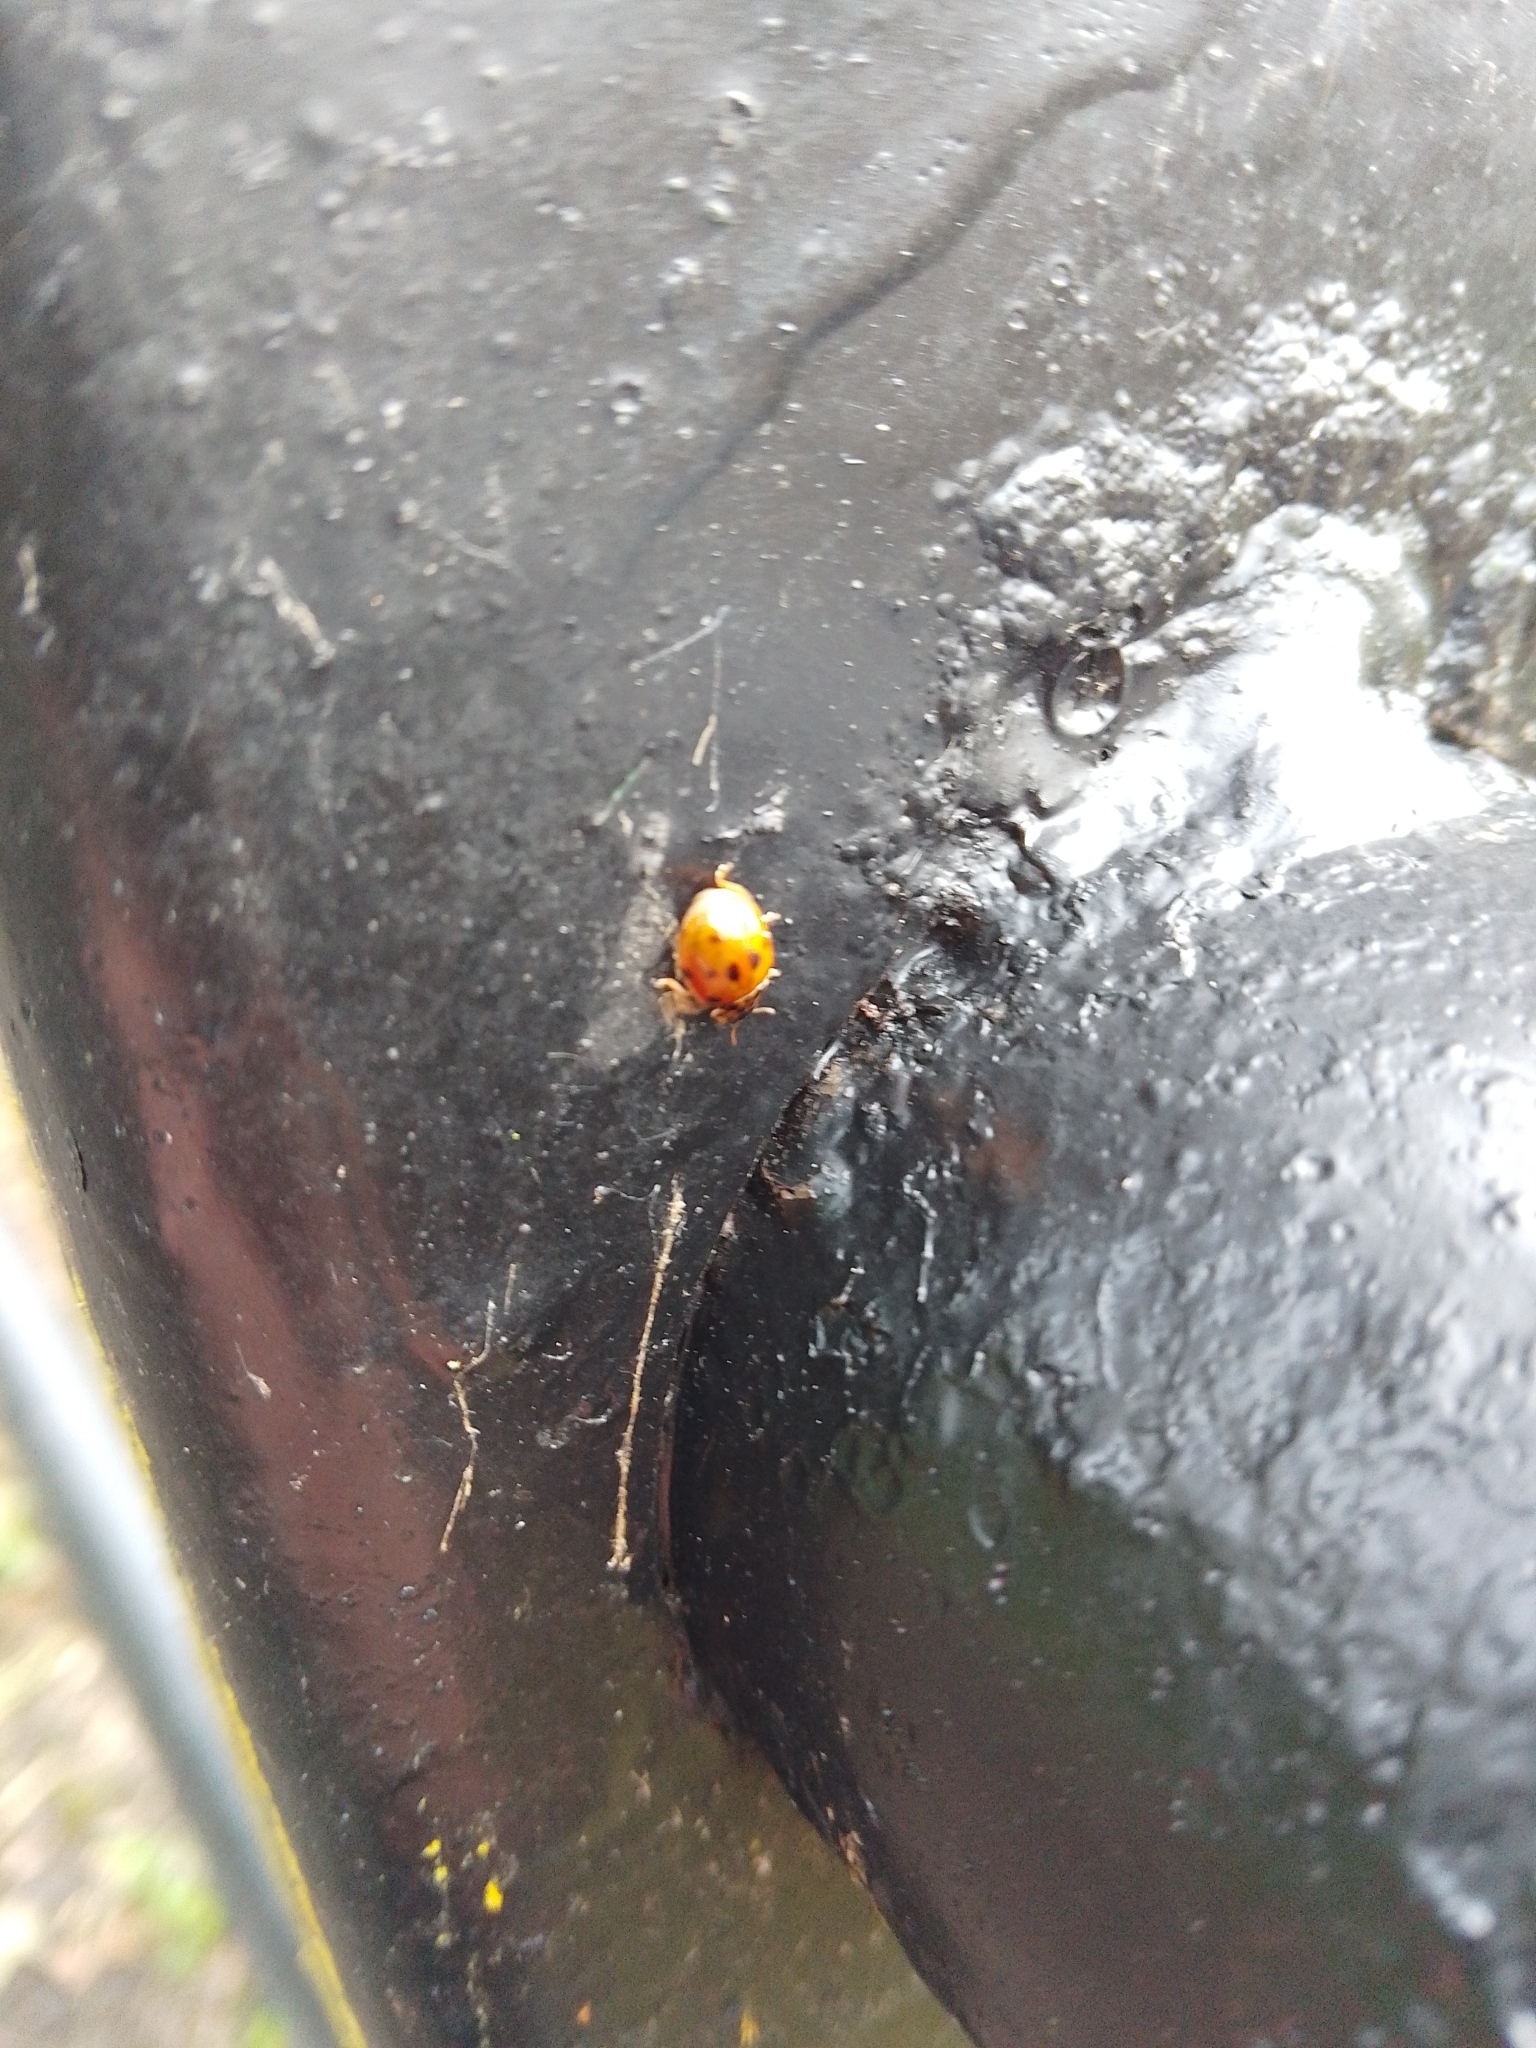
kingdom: Animalia
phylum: Arthropoda
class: Insecta
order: Coleoptera
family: Coccinellidae
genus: Adalia
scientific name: Adalia decempunctata
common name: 10-spot ladybird
